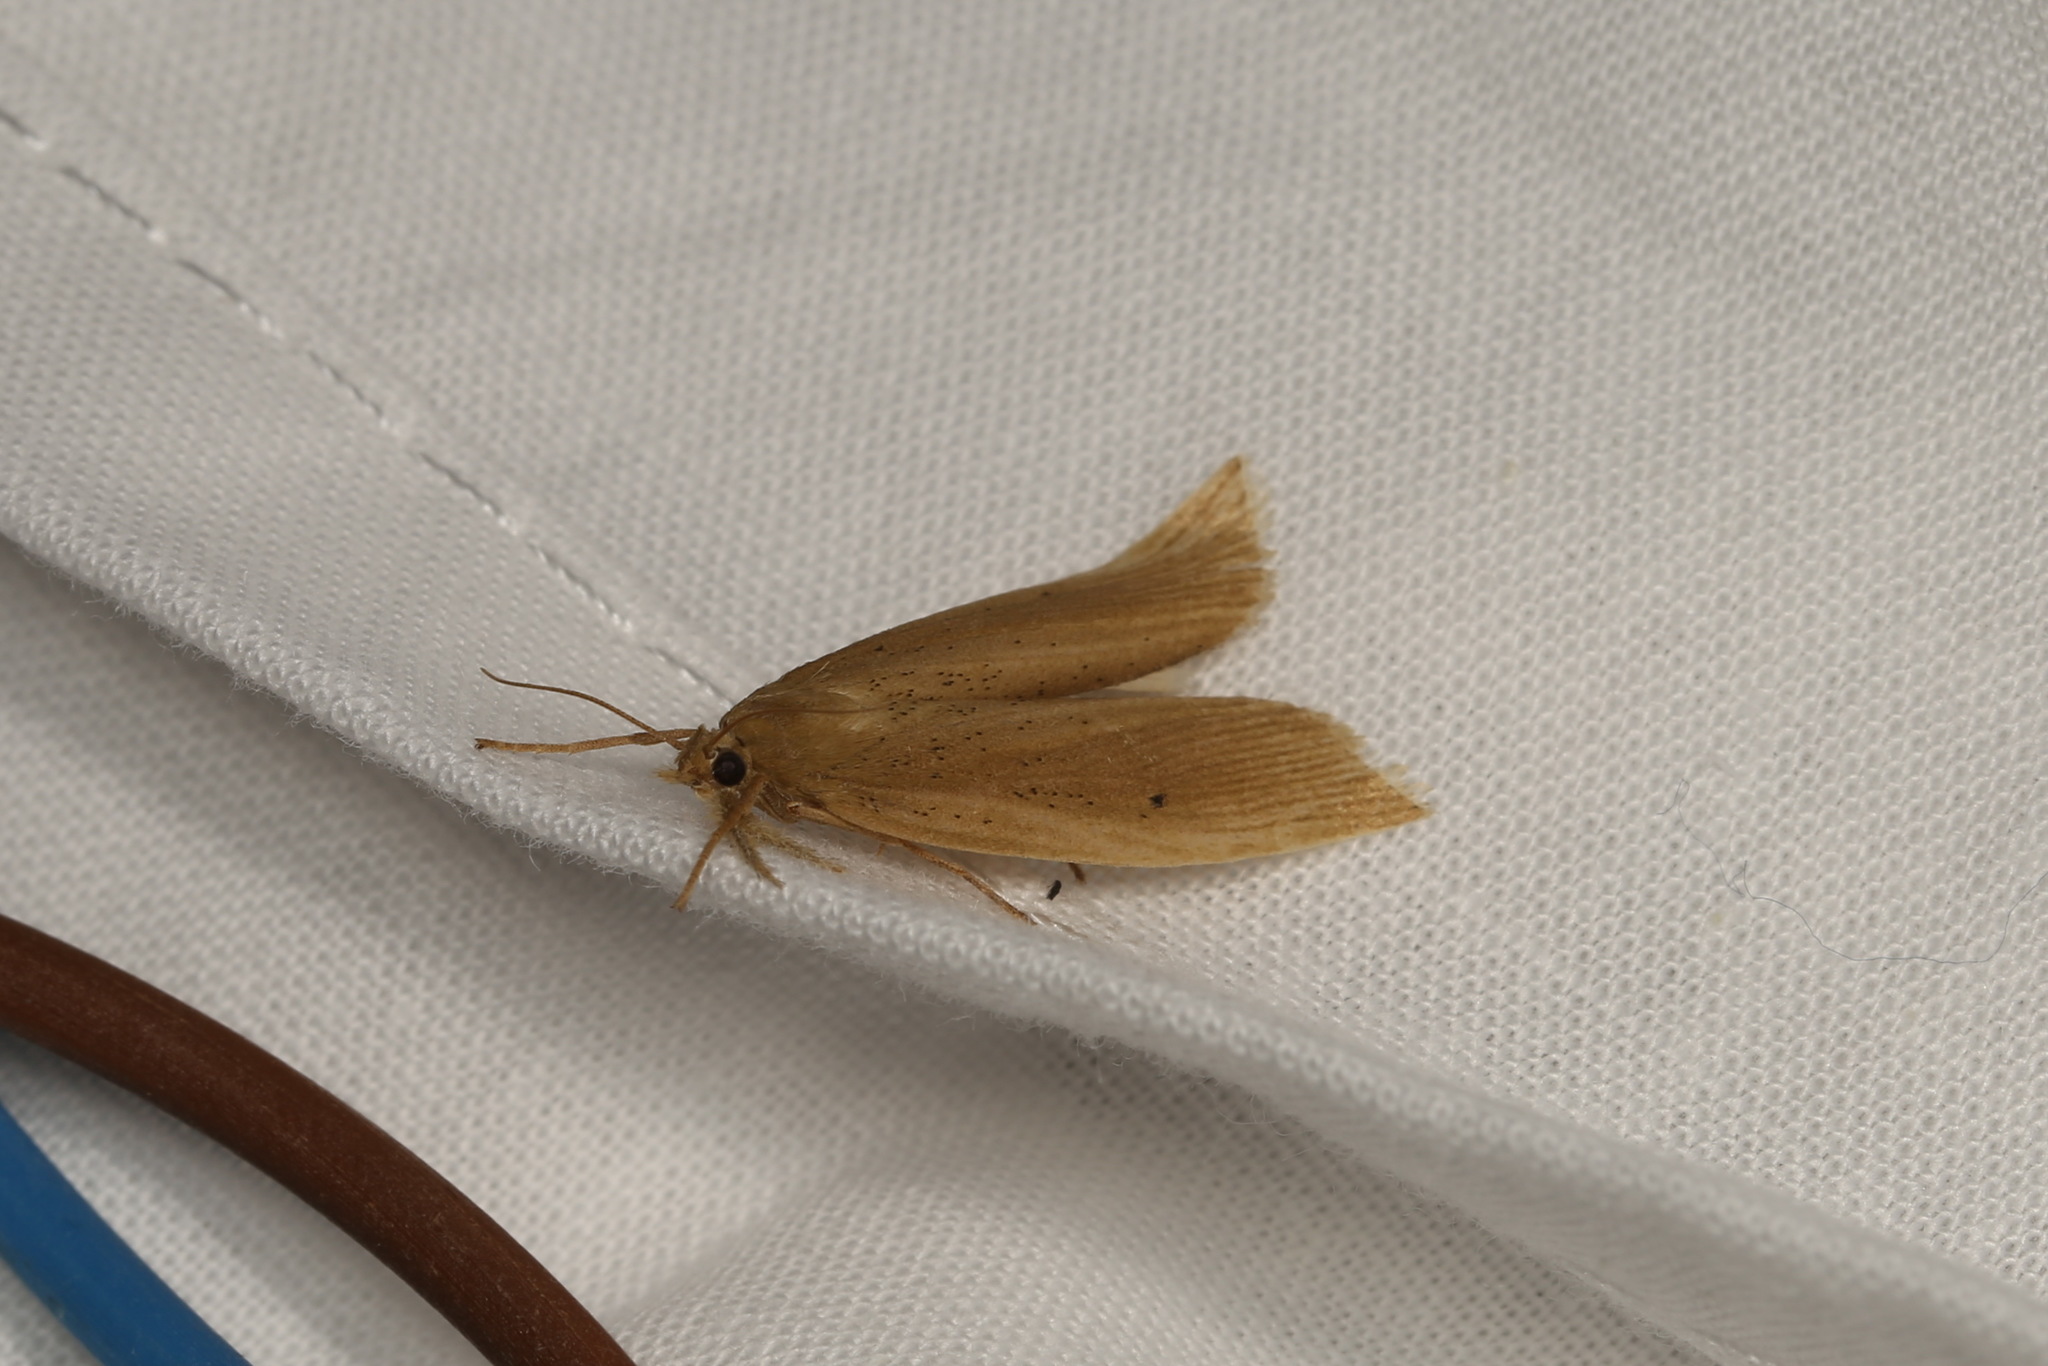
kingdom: Animalia
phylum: Arthropoda
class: Insecta
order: Lepidoptera
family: Crambidae
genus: Chilo
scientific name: Chilo phragmitella
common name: Reed veneer
